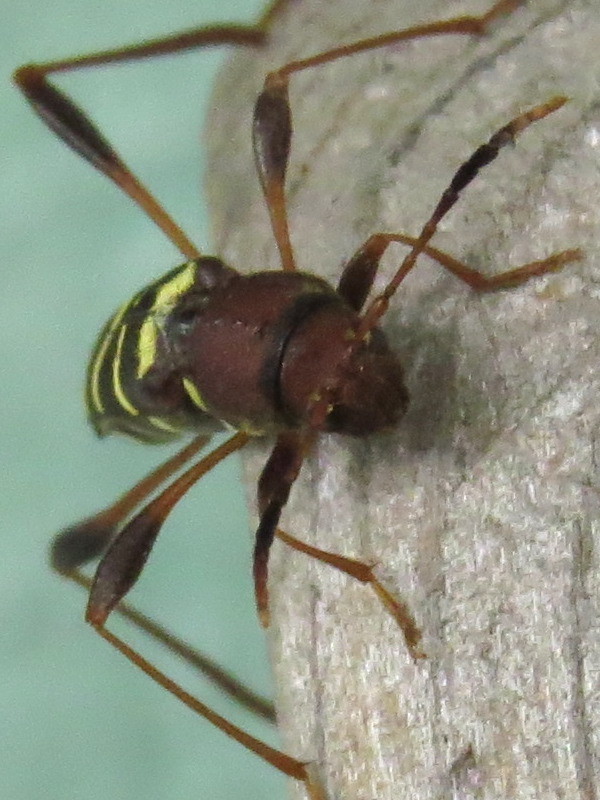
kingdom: Animalia
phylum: Arthropoda
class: Insecta
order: Coleoptera
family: Cerambycidae
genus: Neoclytus
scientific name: Neoclytus acuminatus
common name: Read-headed ash borer
